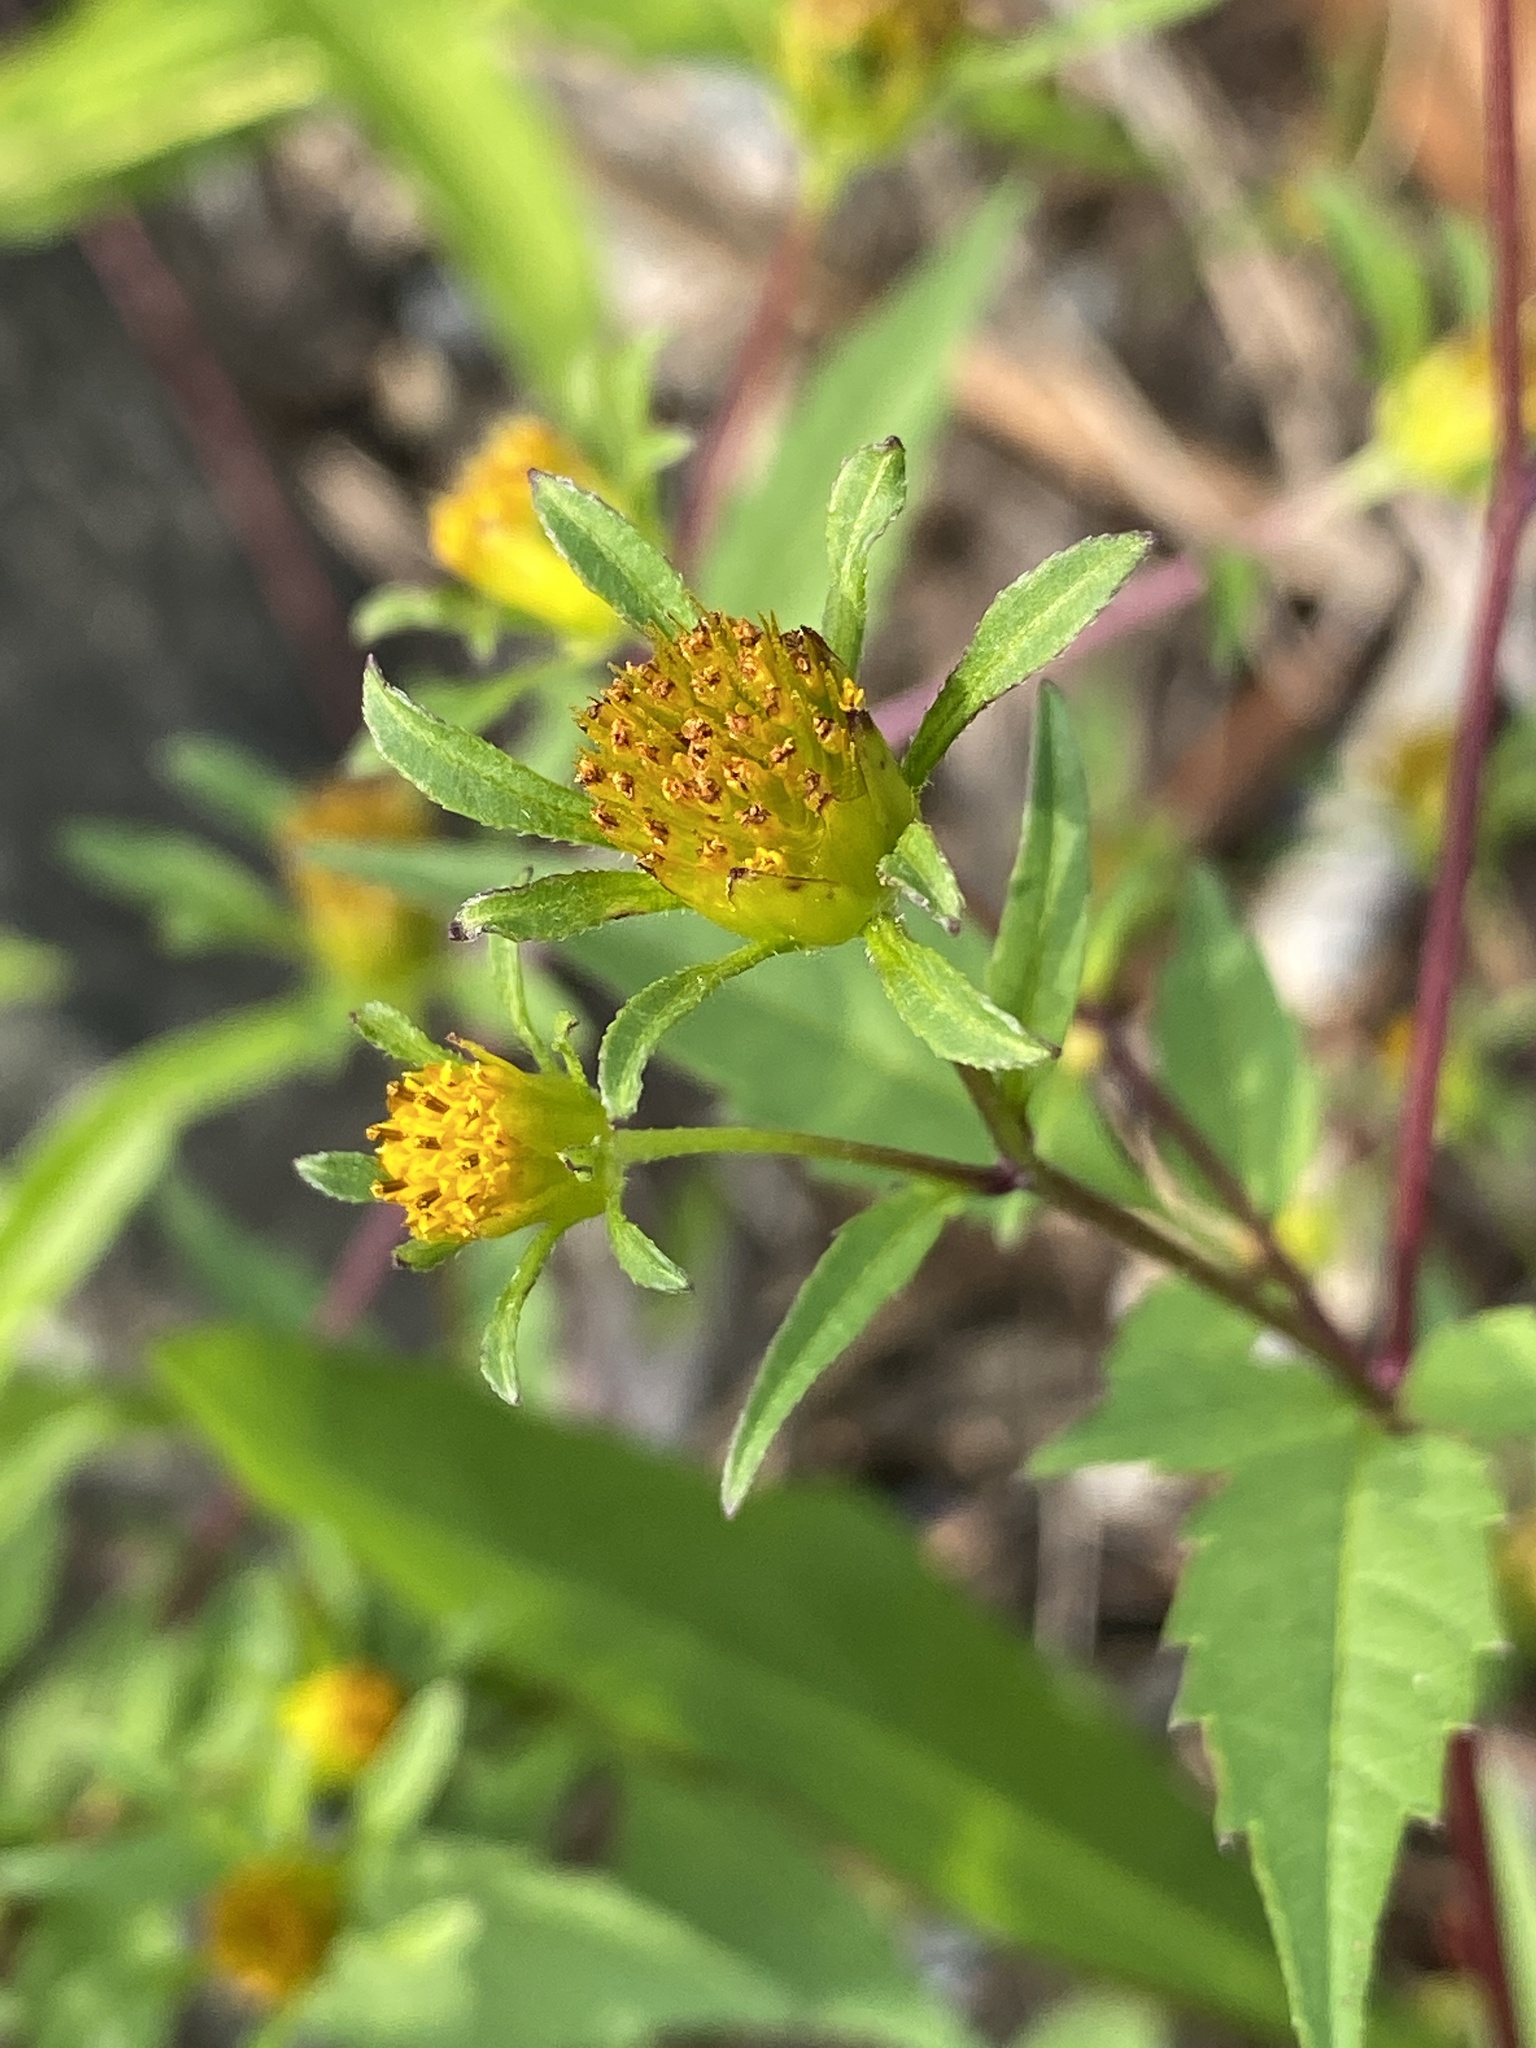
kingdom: Plantae
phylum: Tracheophyta
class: Magnoliopsida
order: Asterales
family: Asteraceae
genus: Bidens
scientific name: Bidens frondosa
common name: Beggarticks
